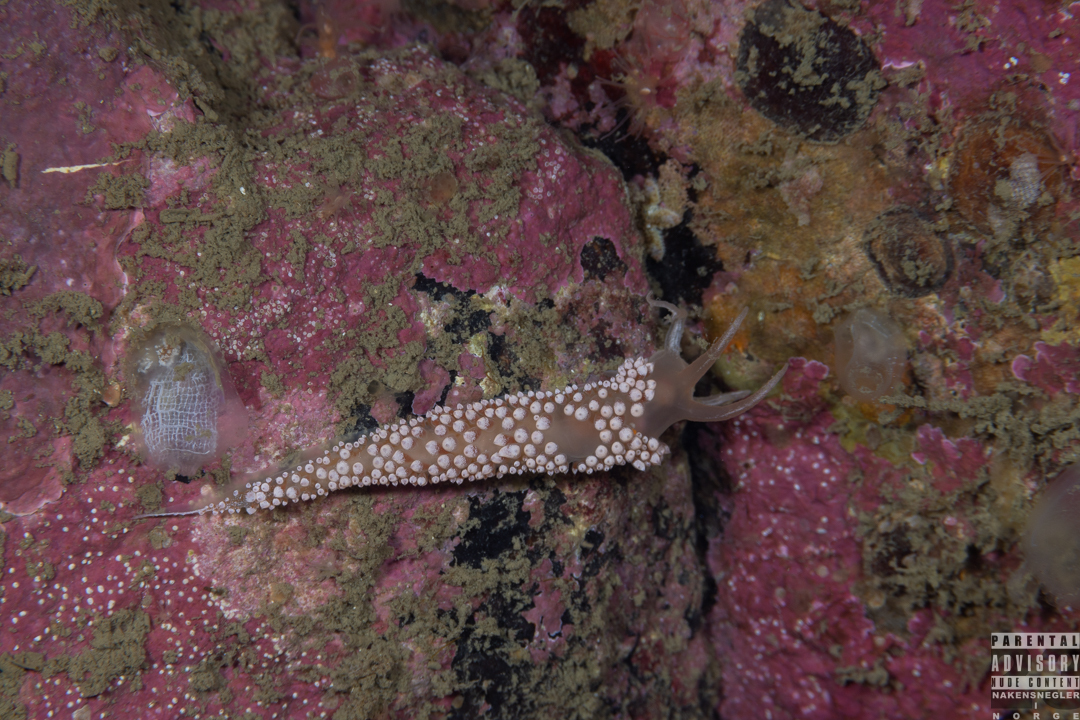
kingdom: Animalia
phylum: Mollusca
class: Gastropoda
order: Nudibranchia
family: Coryphellidae
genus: Coryphella
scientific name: Coryphella verrucosa
